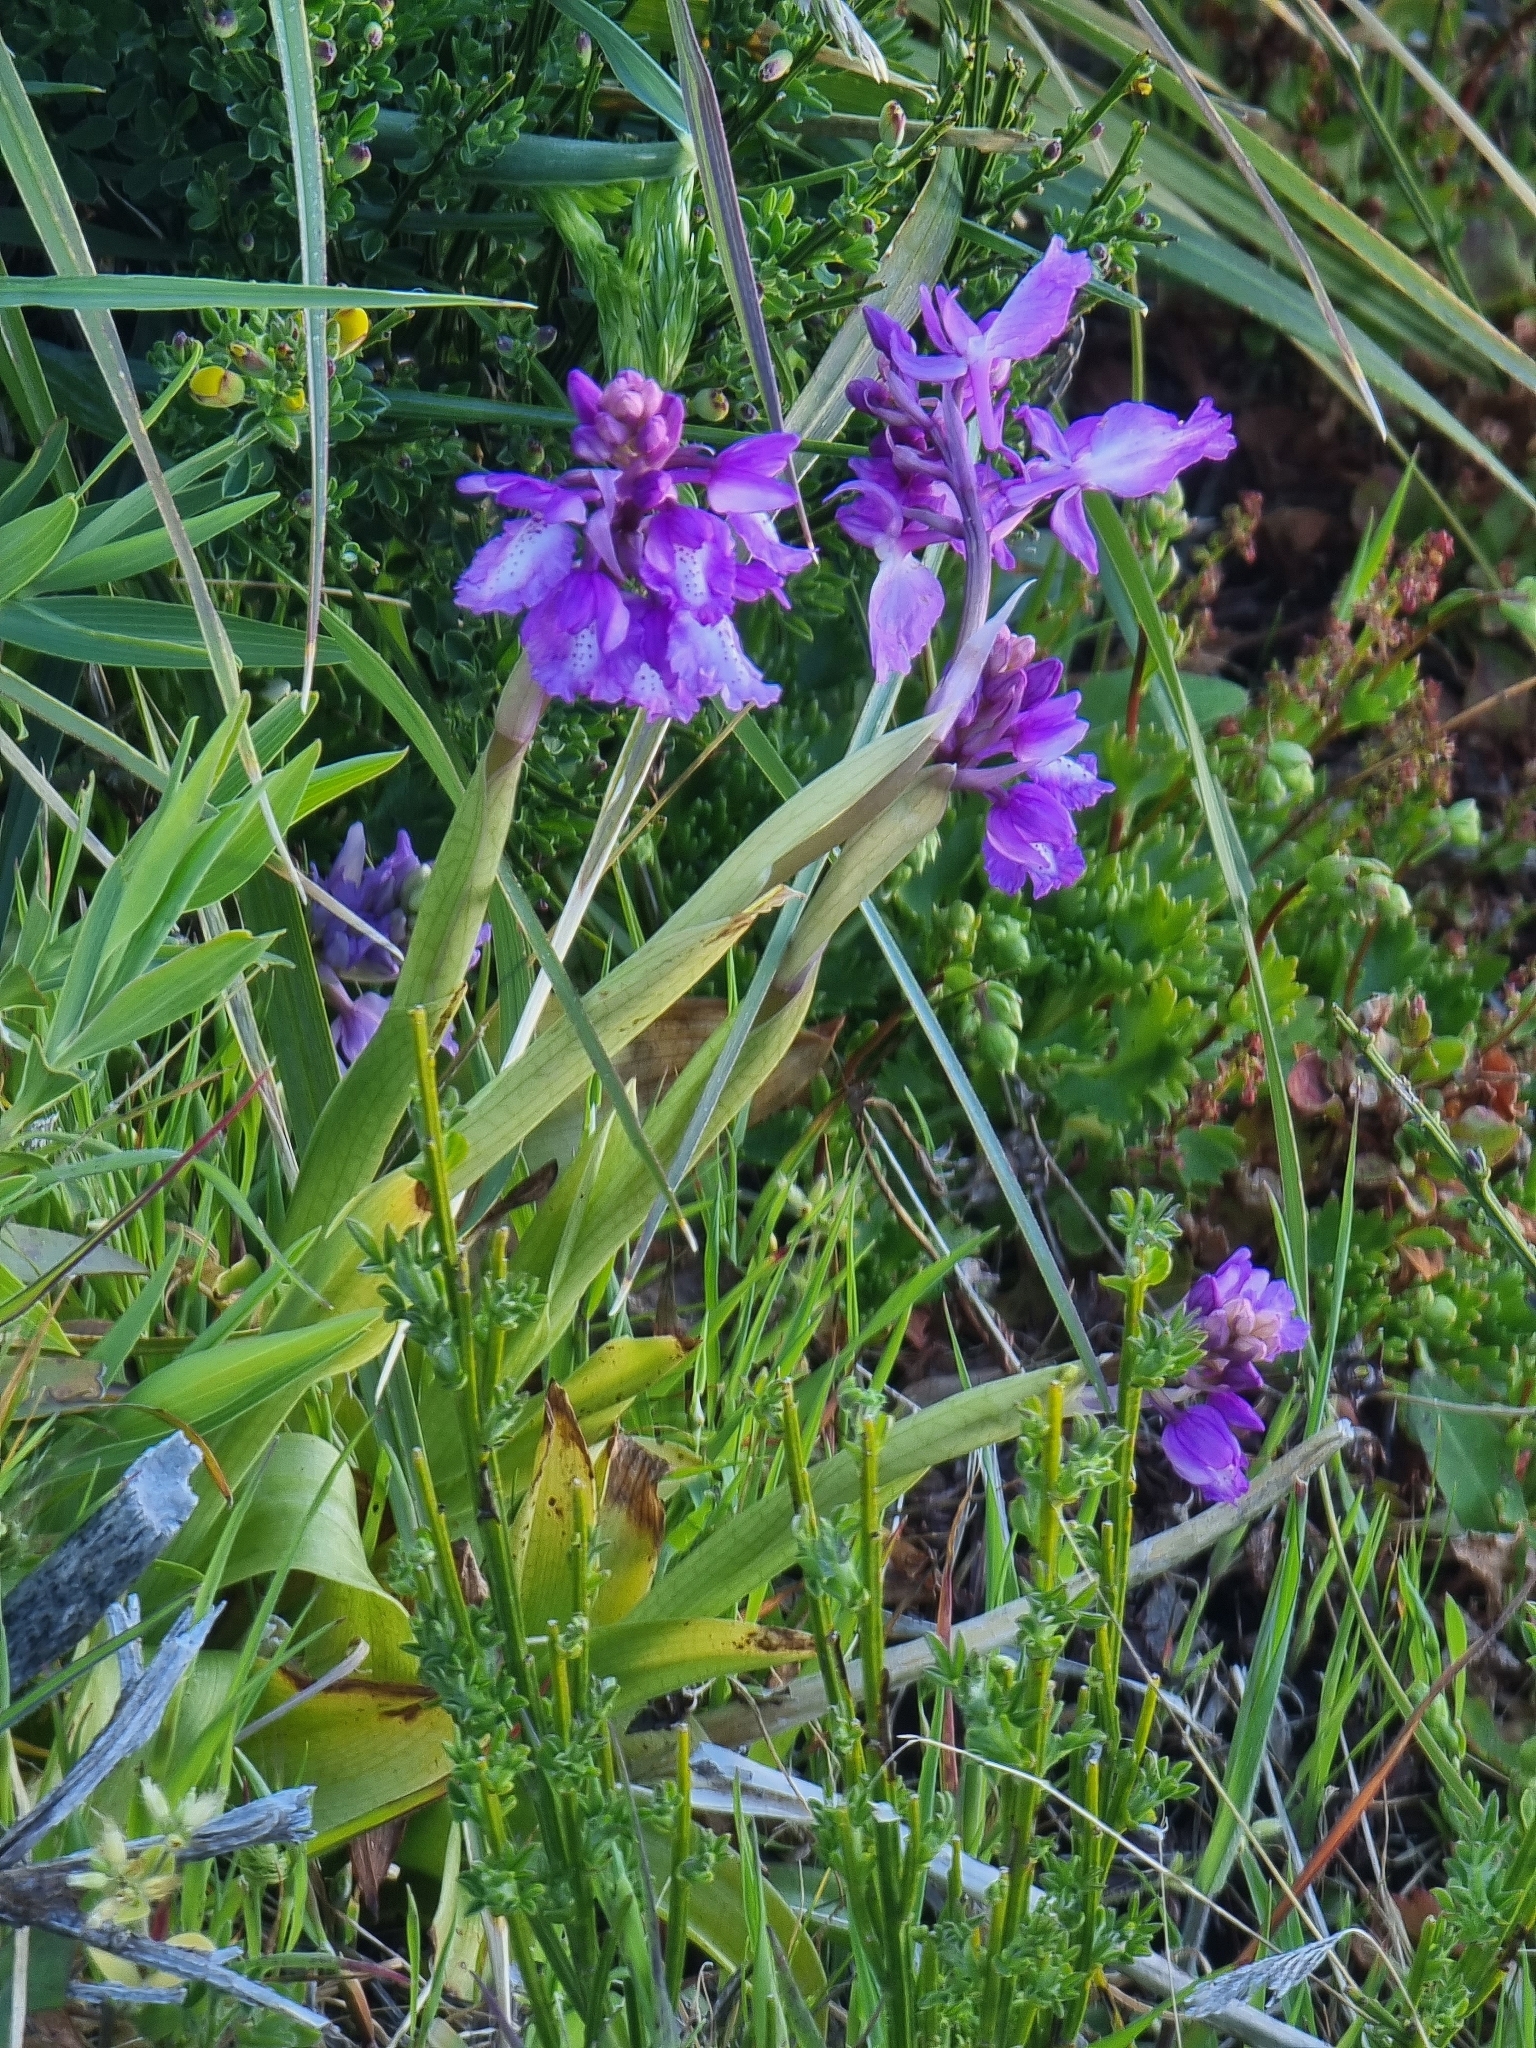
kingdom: Plantae
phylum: Tracheophyta
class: Liliopsida
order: Asparagales
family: Orchidaceae
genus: Orchis
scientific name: Orchis mascula
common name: Early-purple orchid
